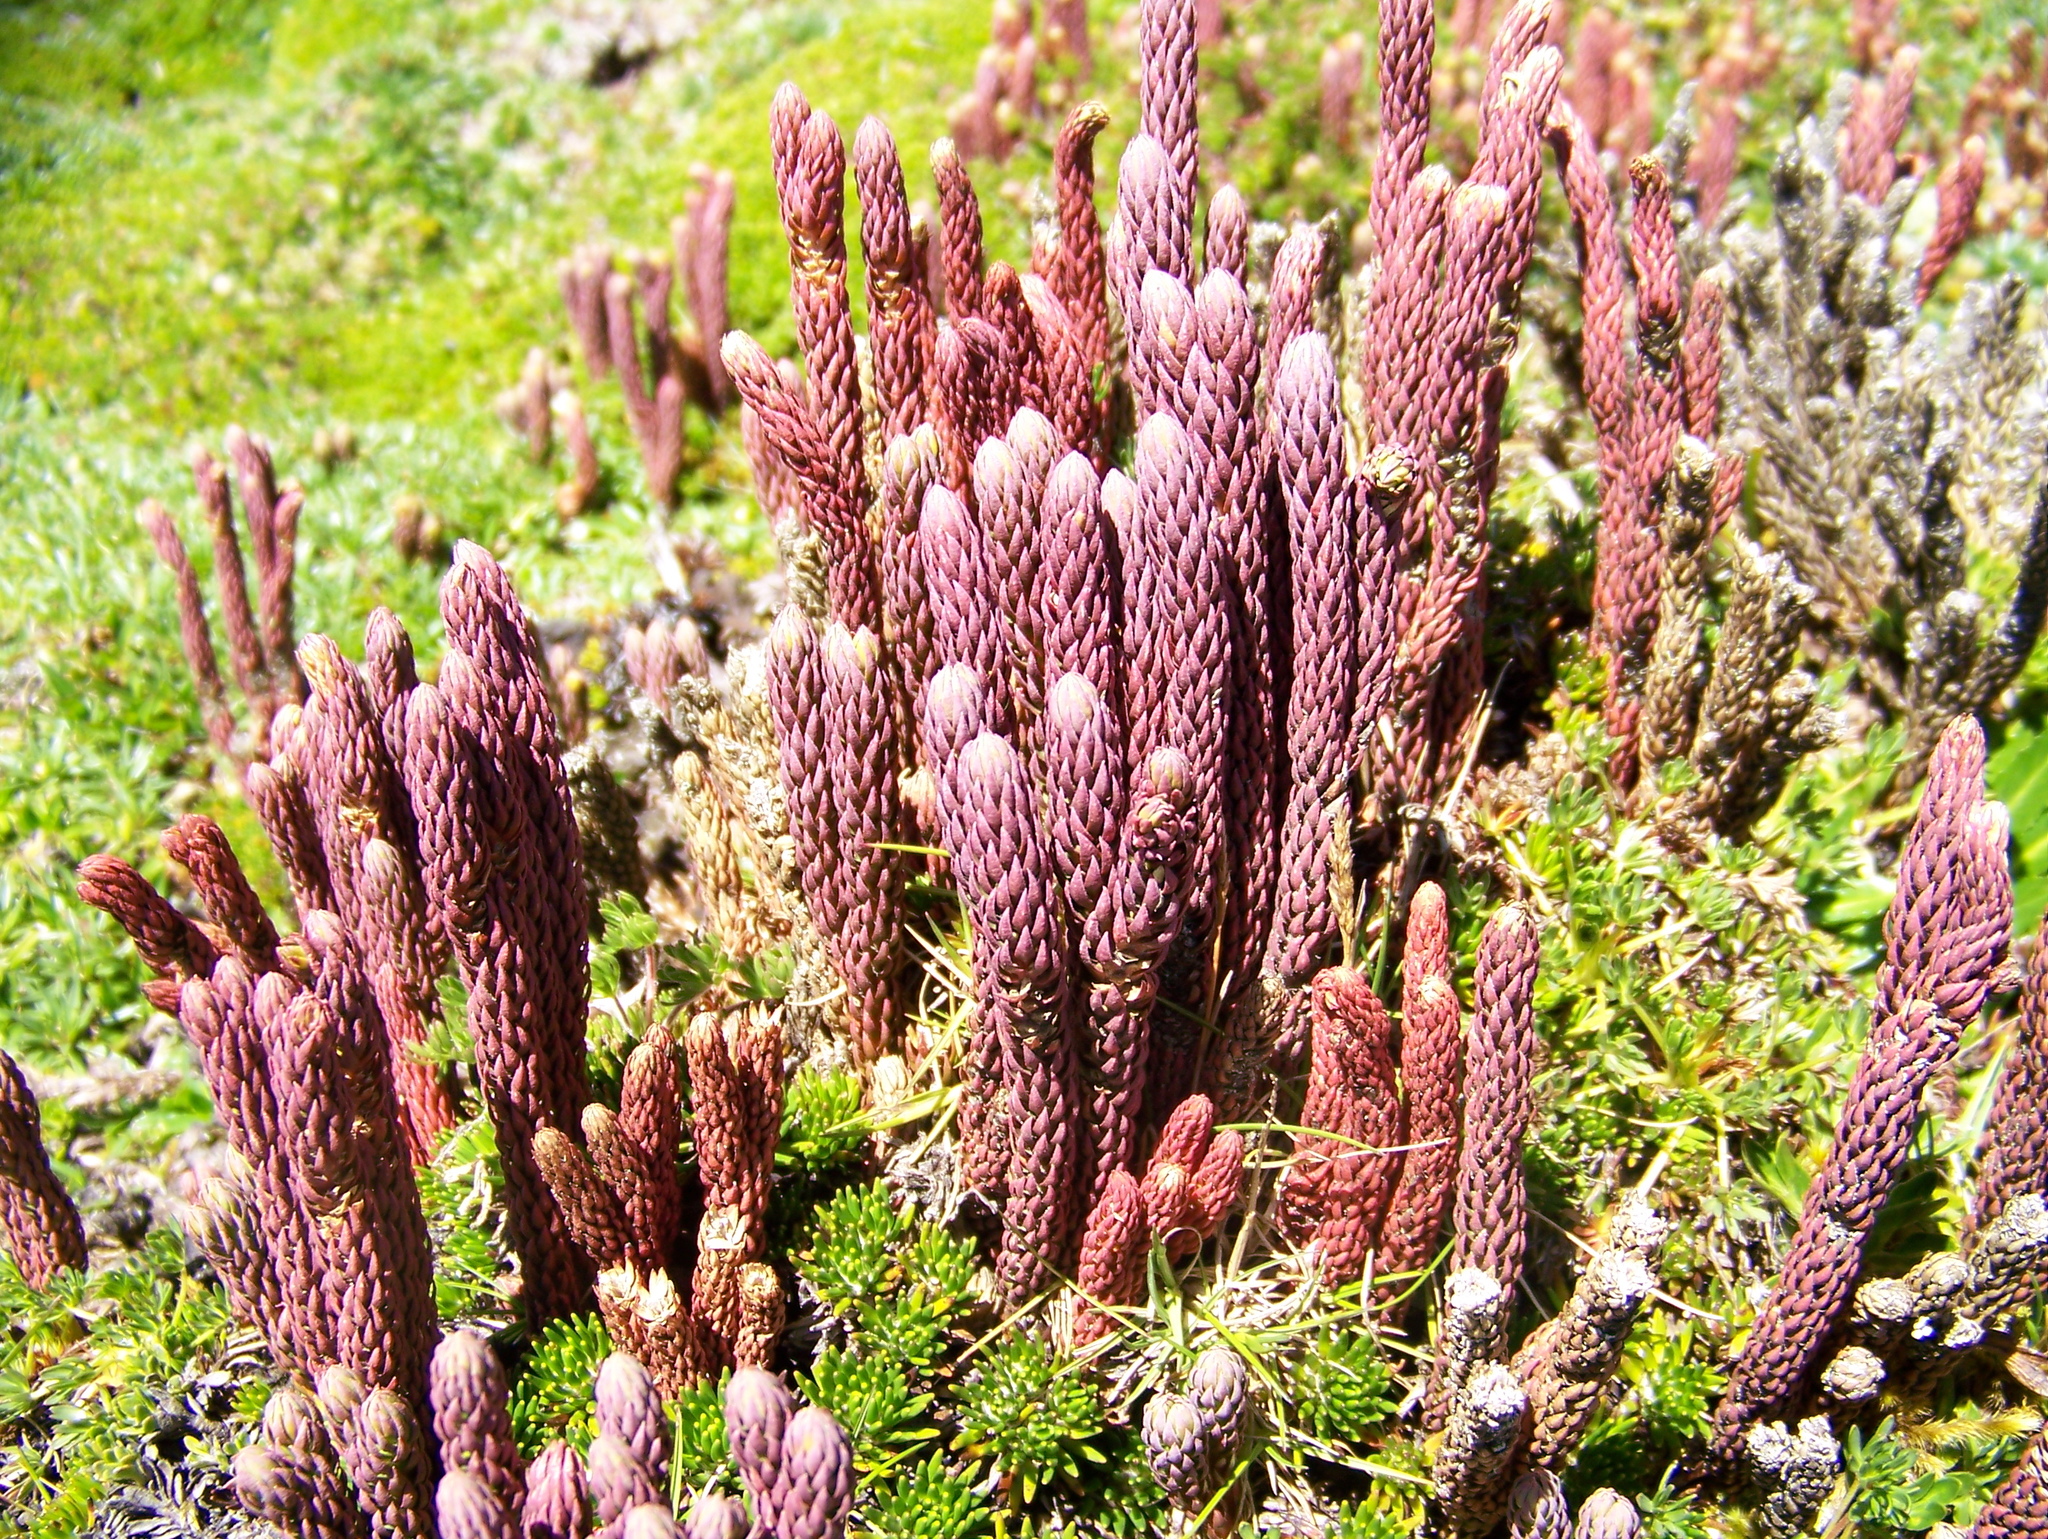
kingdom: Plantae
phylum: Tracheophyta
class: Lycopodiopsida
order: Lycopodiales
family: Lycopodiaceae
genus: Phlegmariurus
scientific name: Phlegmariurus crassus
